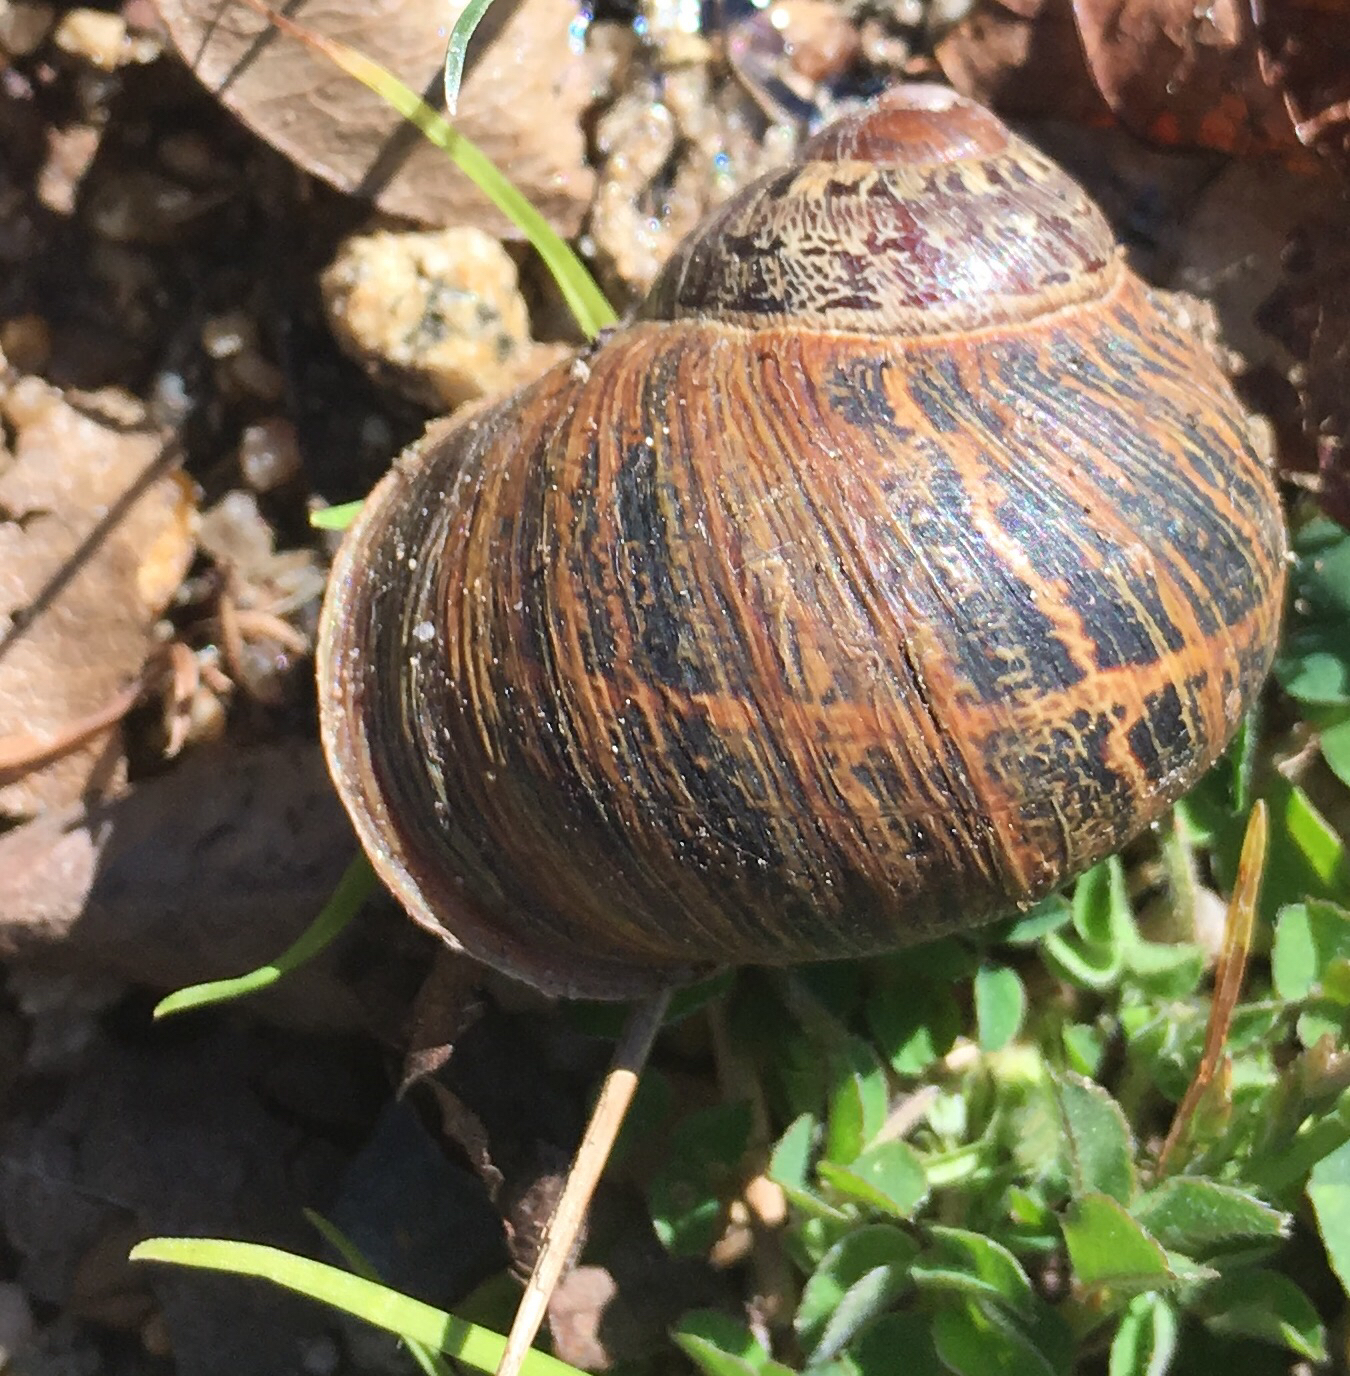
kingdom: Animalia
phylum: Mollusca
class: Gastropoda
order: Stylommatophora
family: Helicidae
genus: Cornu
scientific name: Cornu aspersum
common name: Brown garden snail
